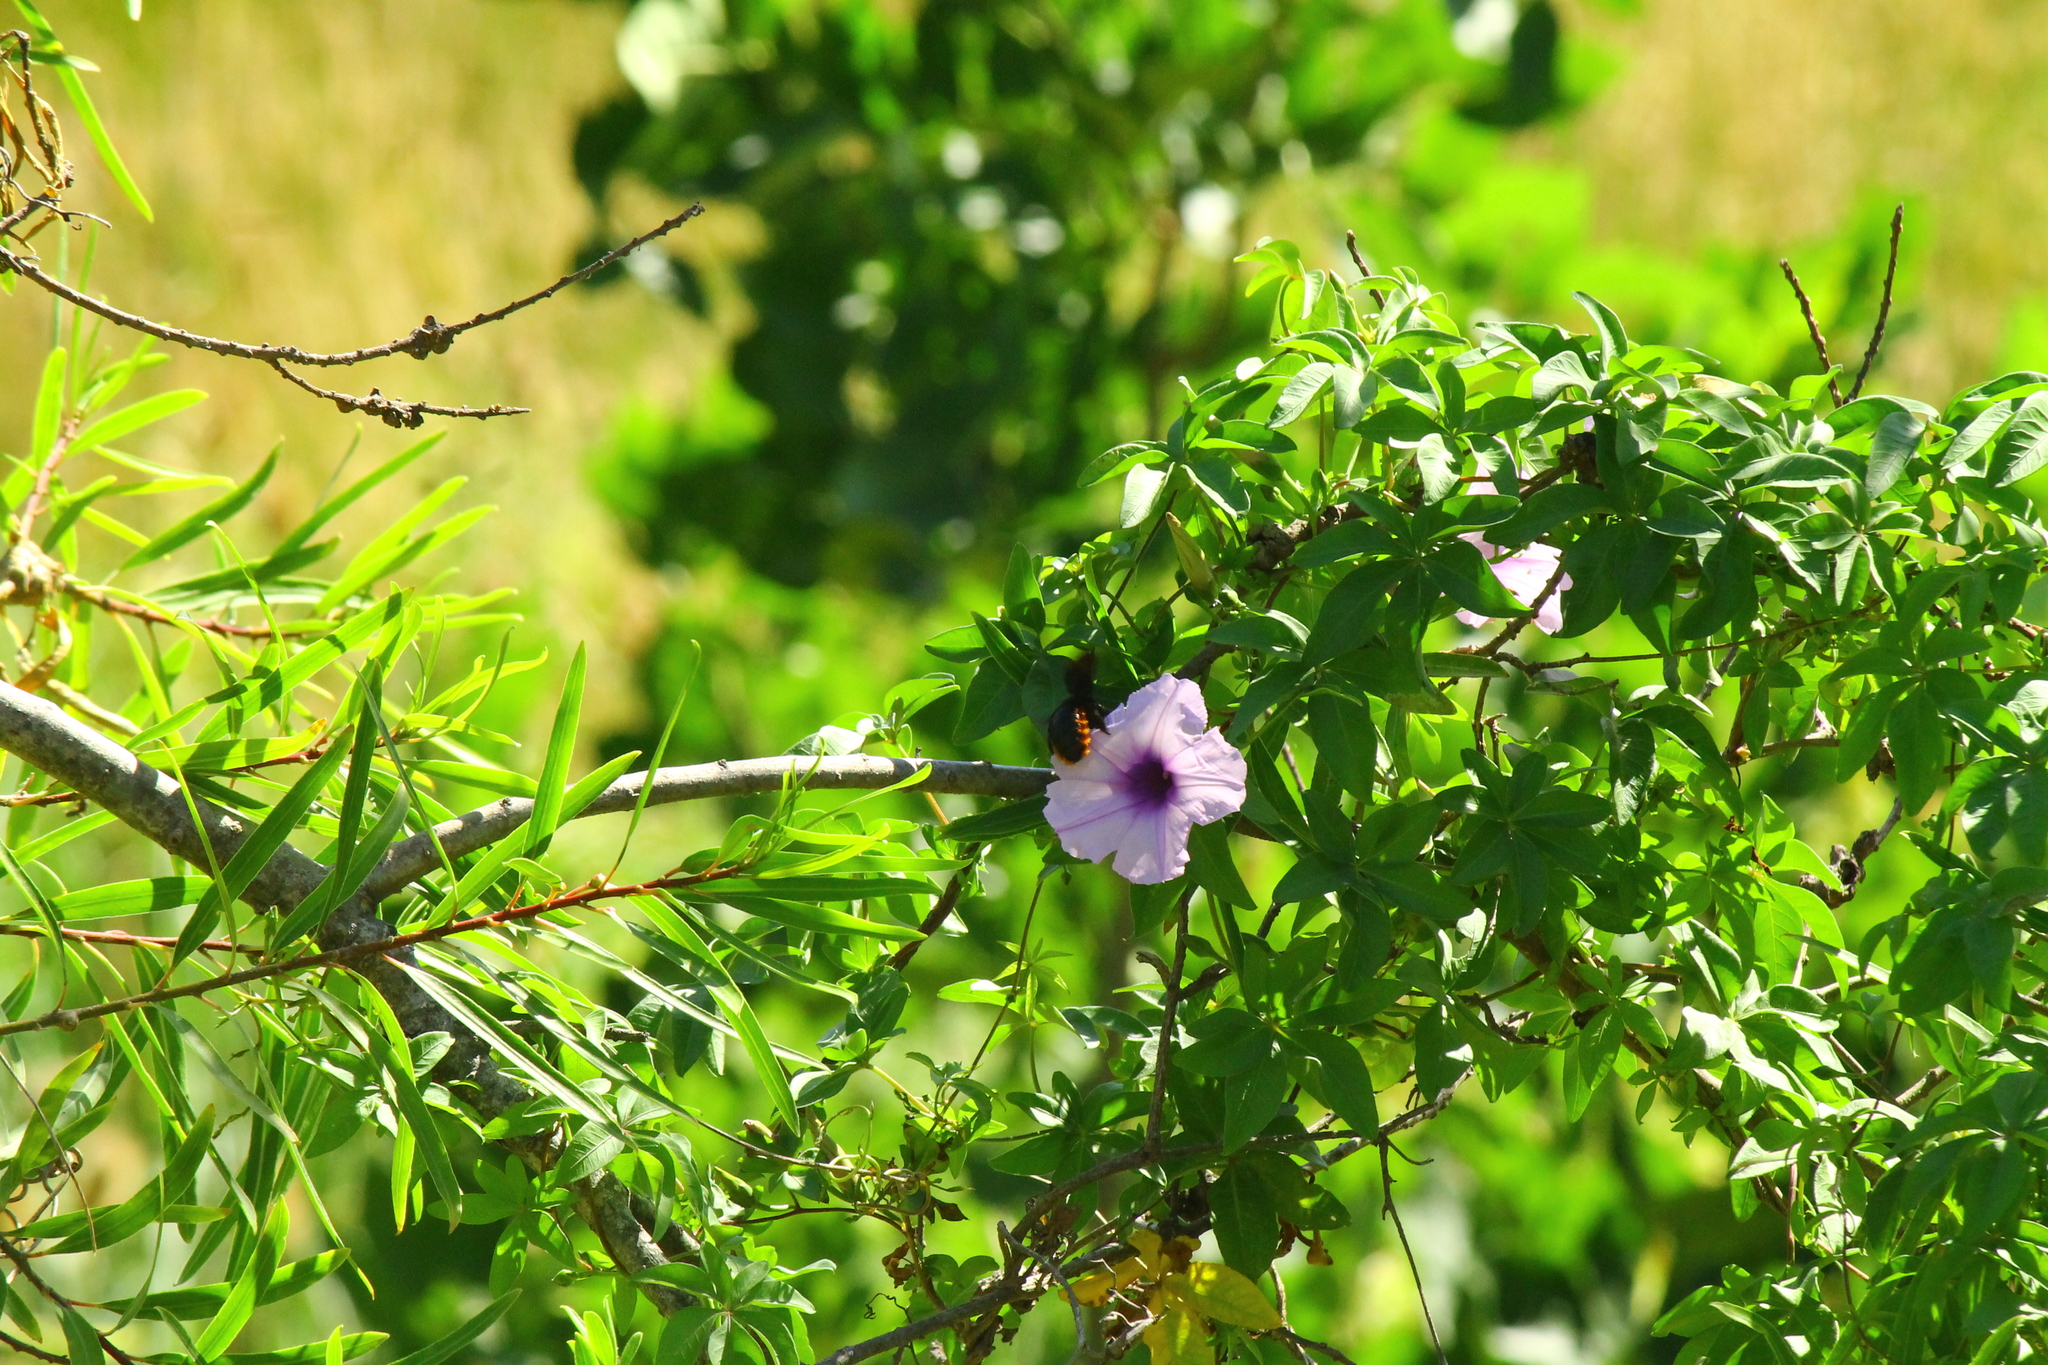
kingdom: Animalia
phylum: Arthropoda
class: Insecta
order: Hymenoptera
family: Apidae
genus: Xylocopa
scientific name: Xylocopa augusti
